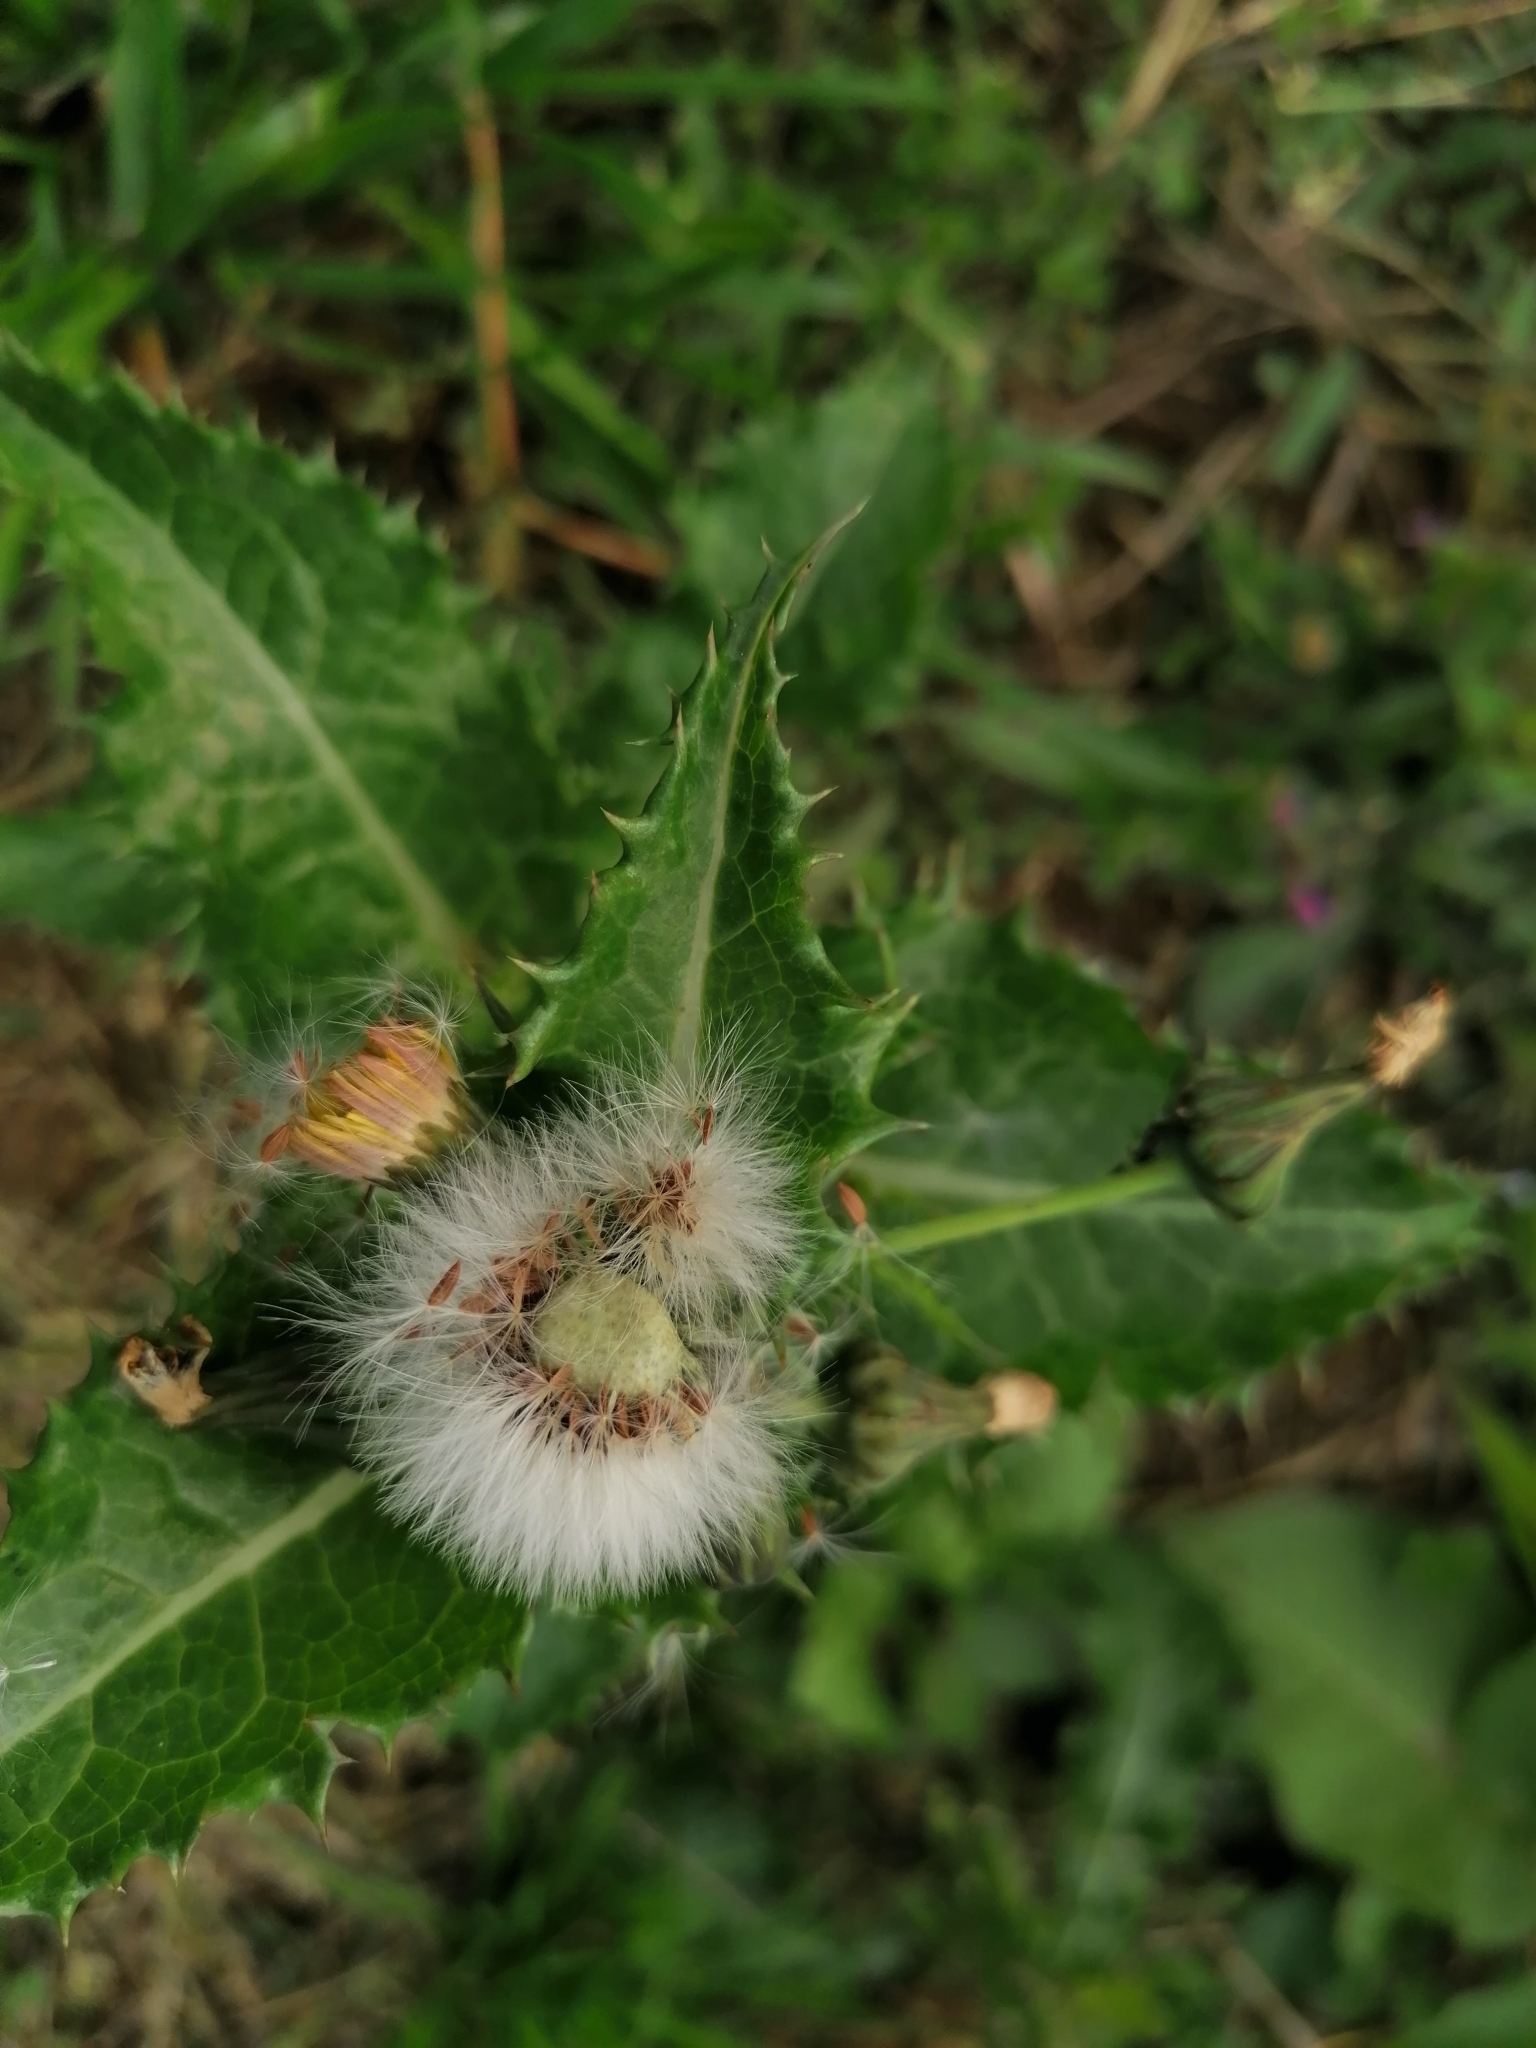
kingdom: Plantae
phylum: Tracheophyta
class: Magnoliopsida
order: Asterales
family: Asteraceae
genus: Sonchus
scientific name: Sonchus asper
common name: Prickly sow-thistle
